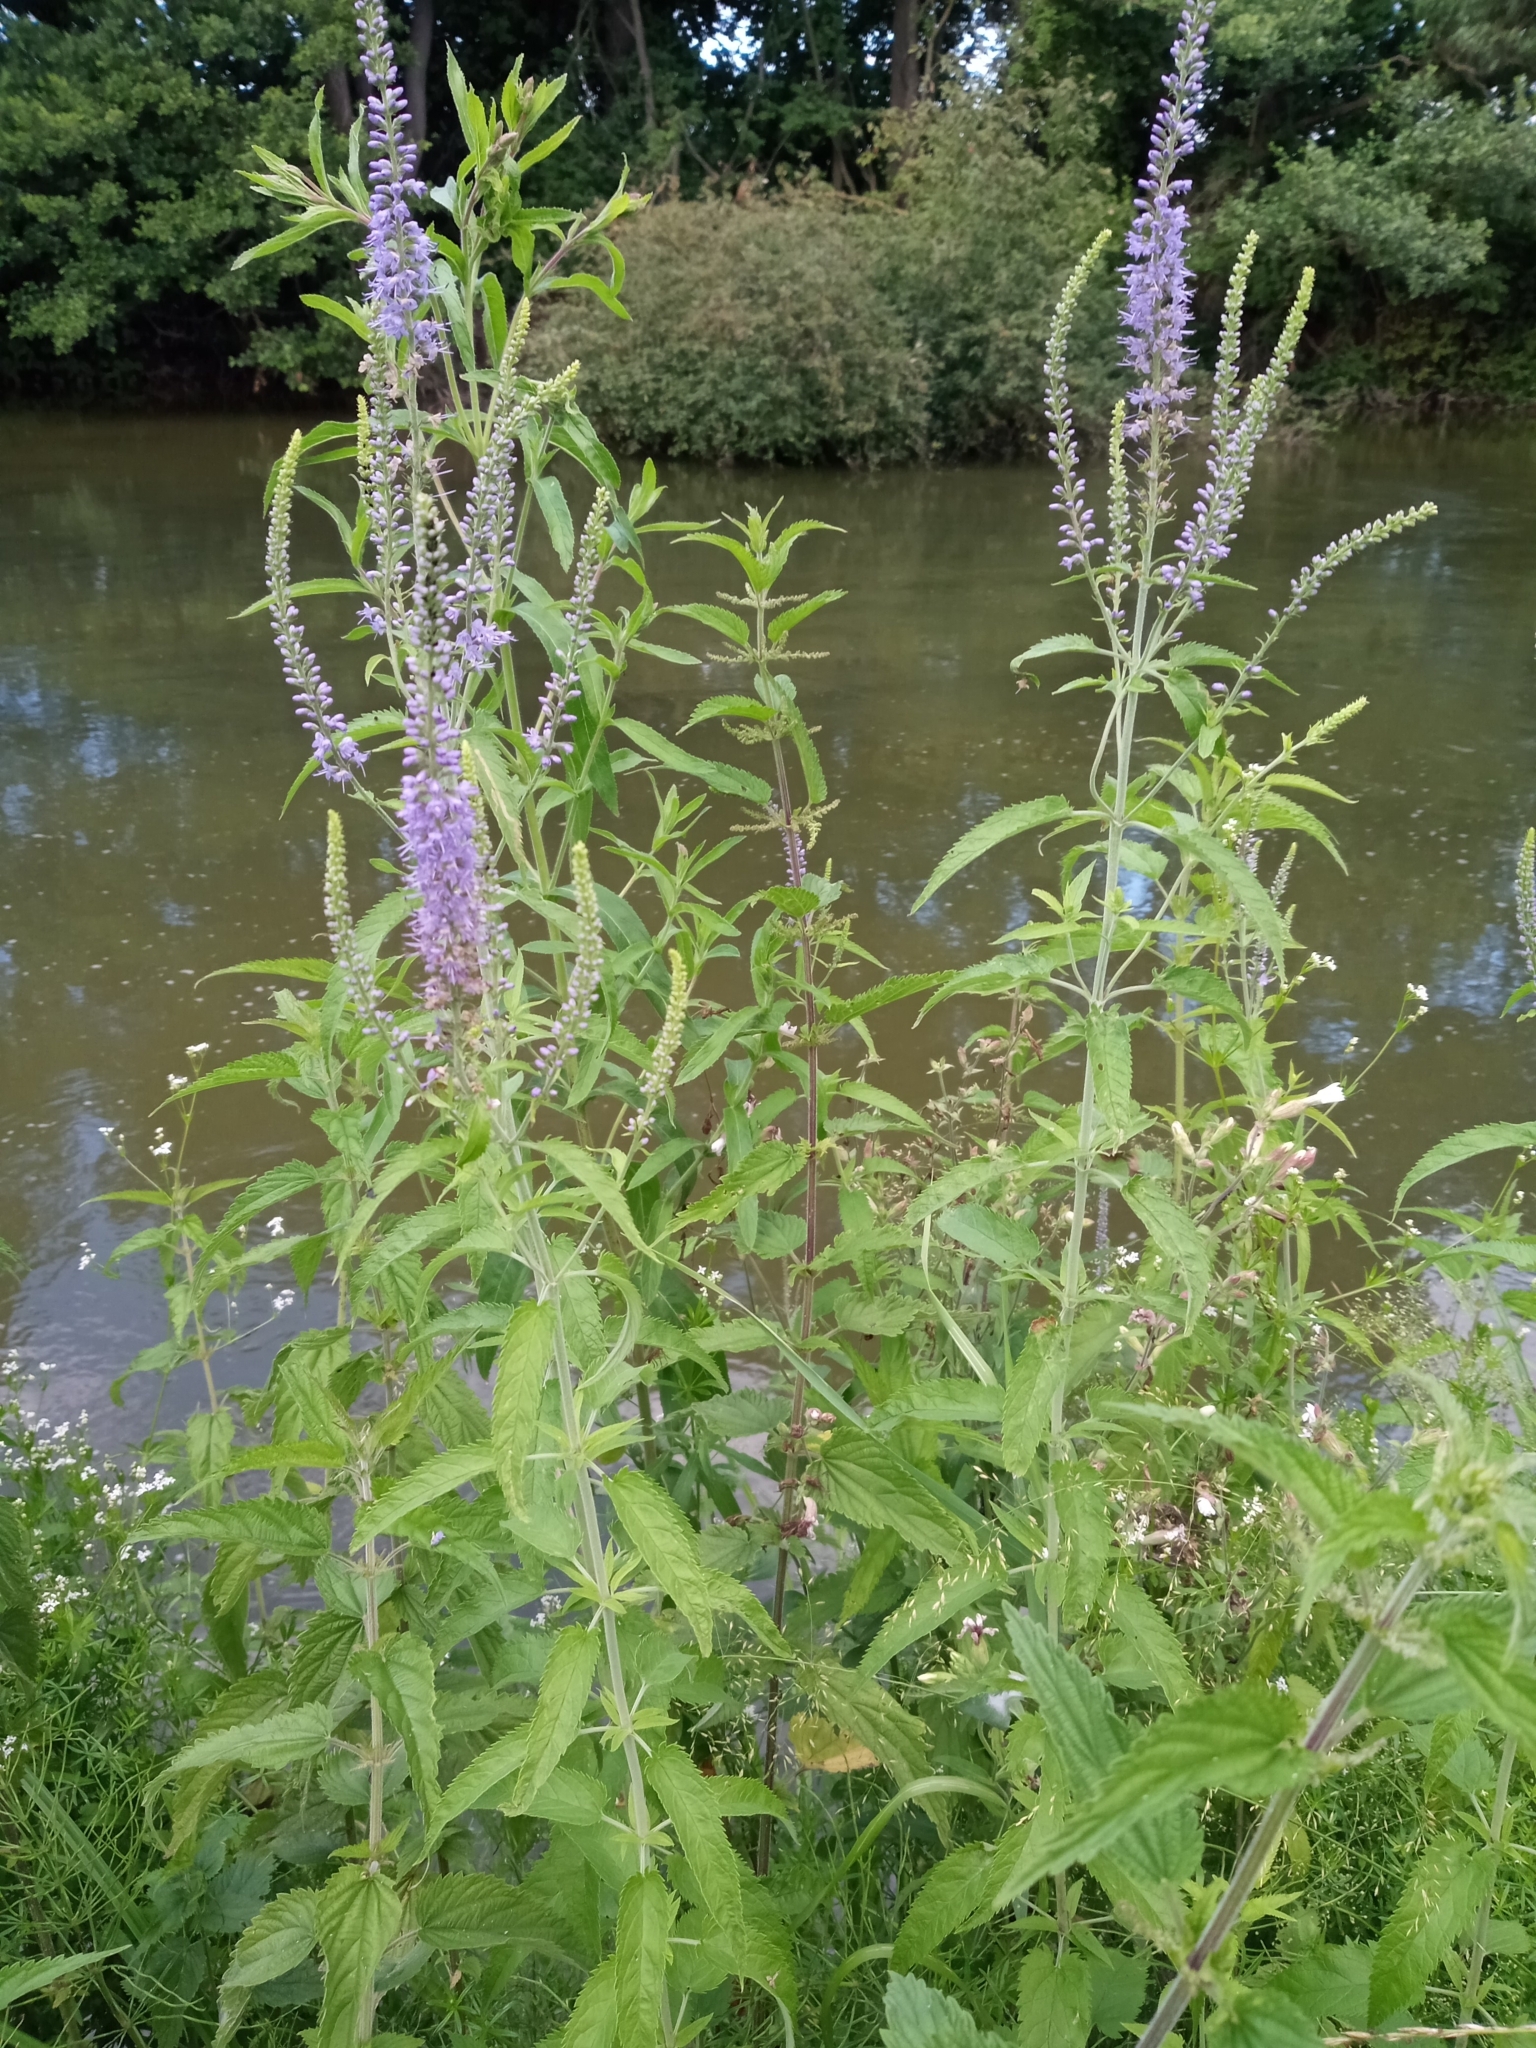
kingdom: Plantae
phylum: Tracheophyta
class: Magnoliopsida
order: Lamiales
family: Plantaginaceae
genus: Veronica
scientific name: Veronica longifolia
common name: Garden speedwell
